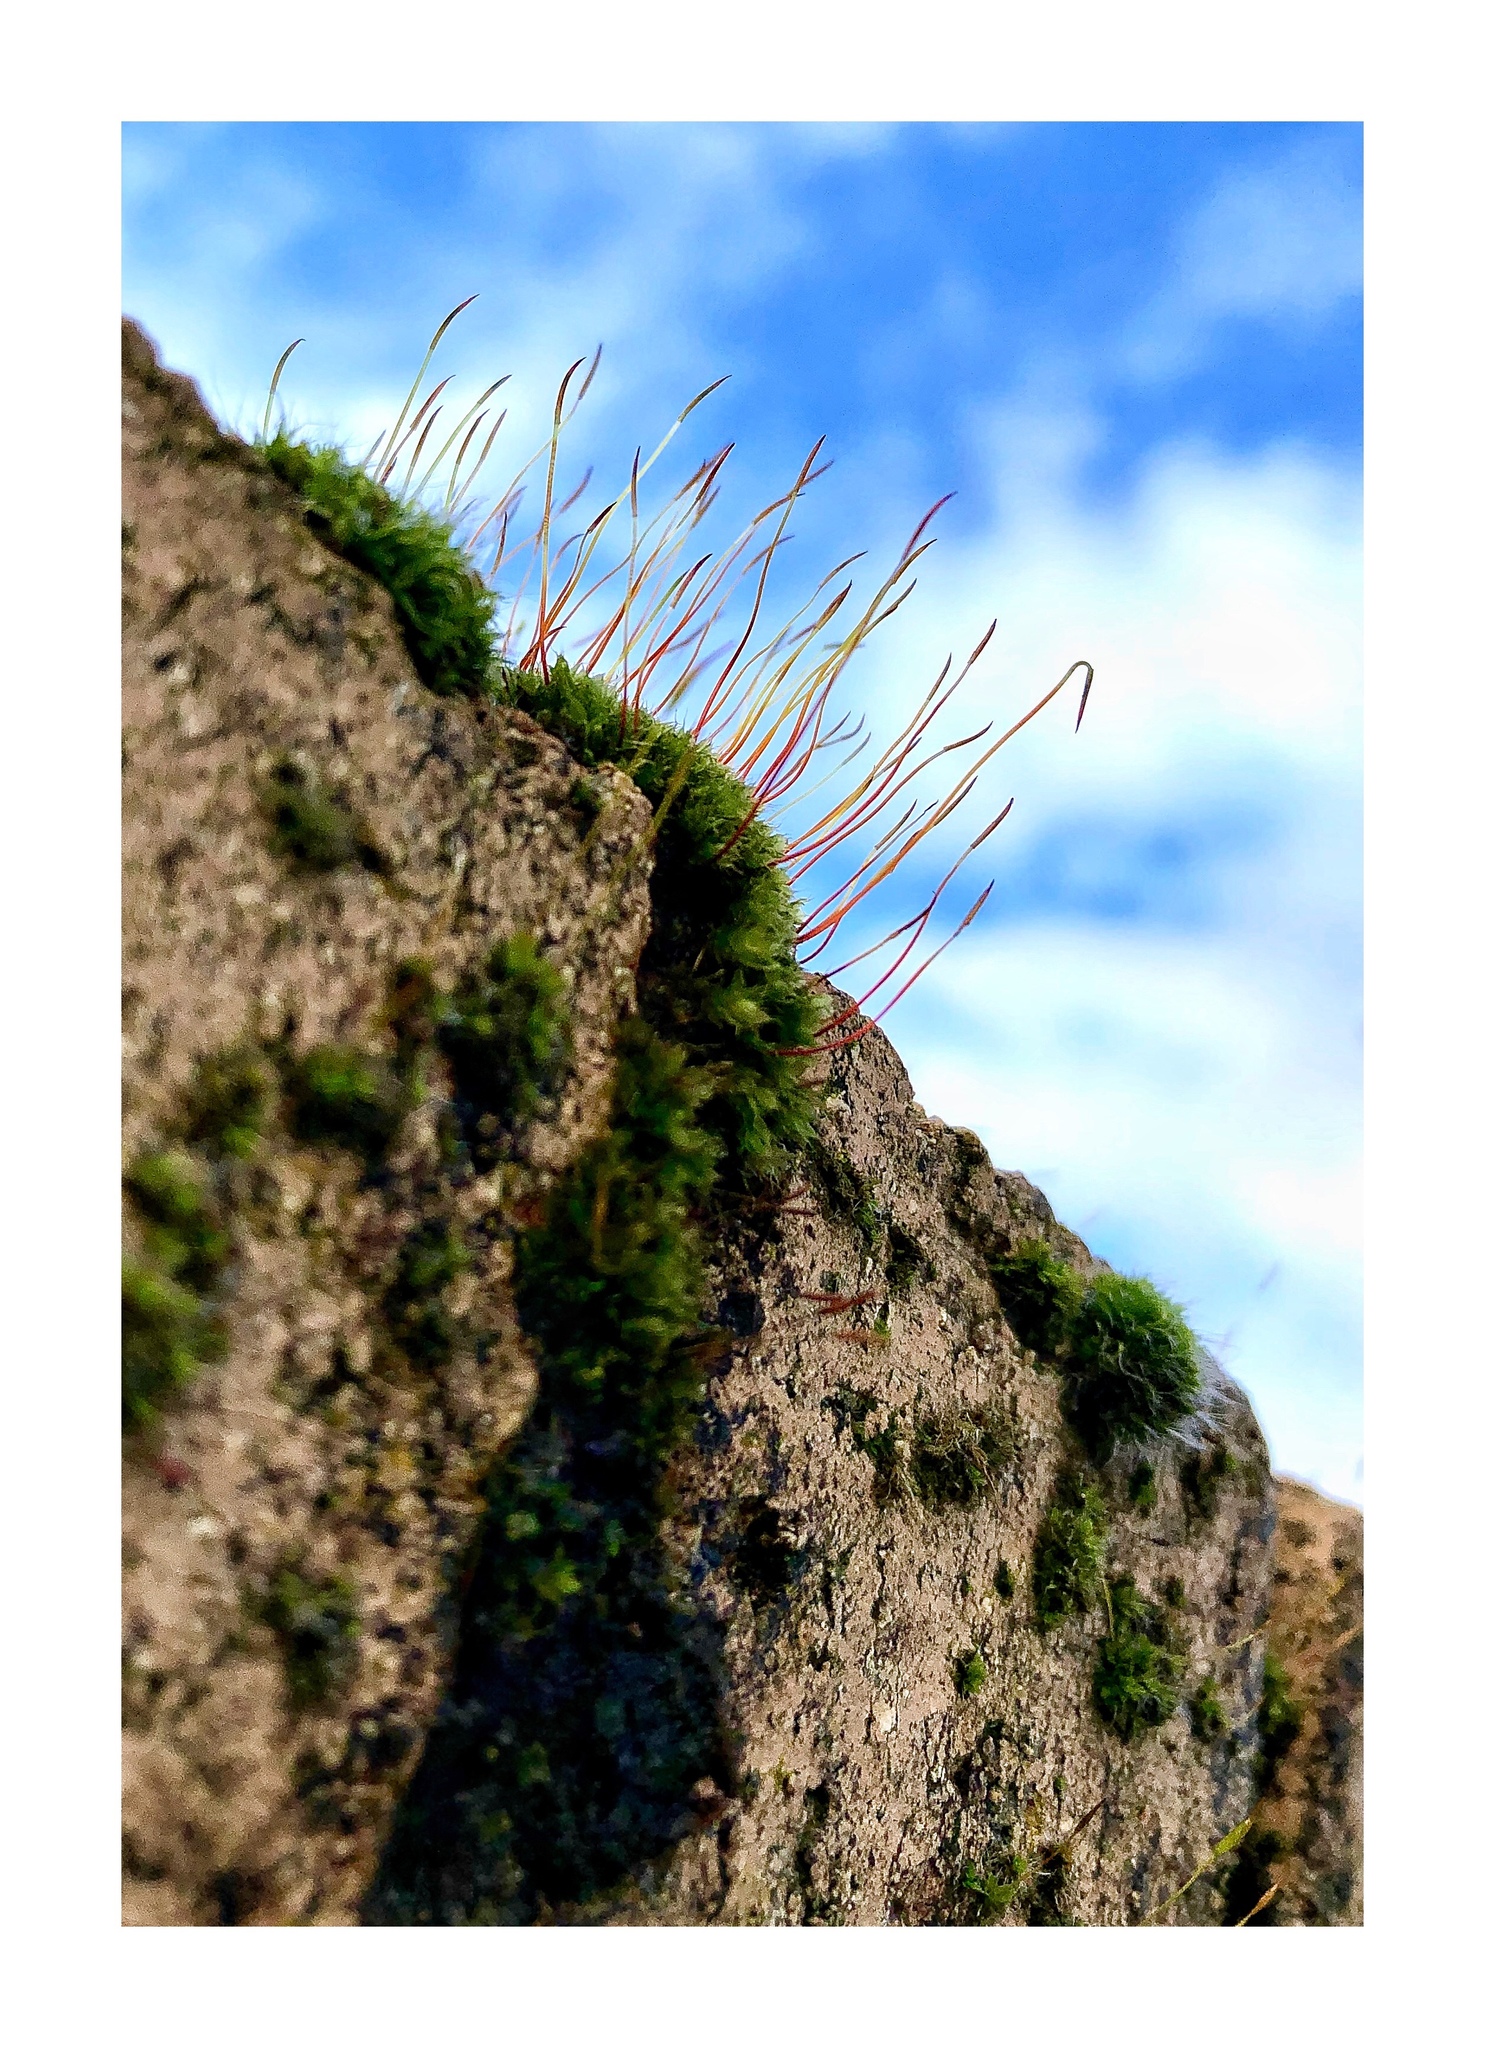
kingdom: Plantae
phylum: Bryophyta
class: Bryopsida
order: Bryales
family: Bryaceae
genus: Rosulabryum
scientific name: Rosulabryum capillare
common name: Capillary thread-moss
